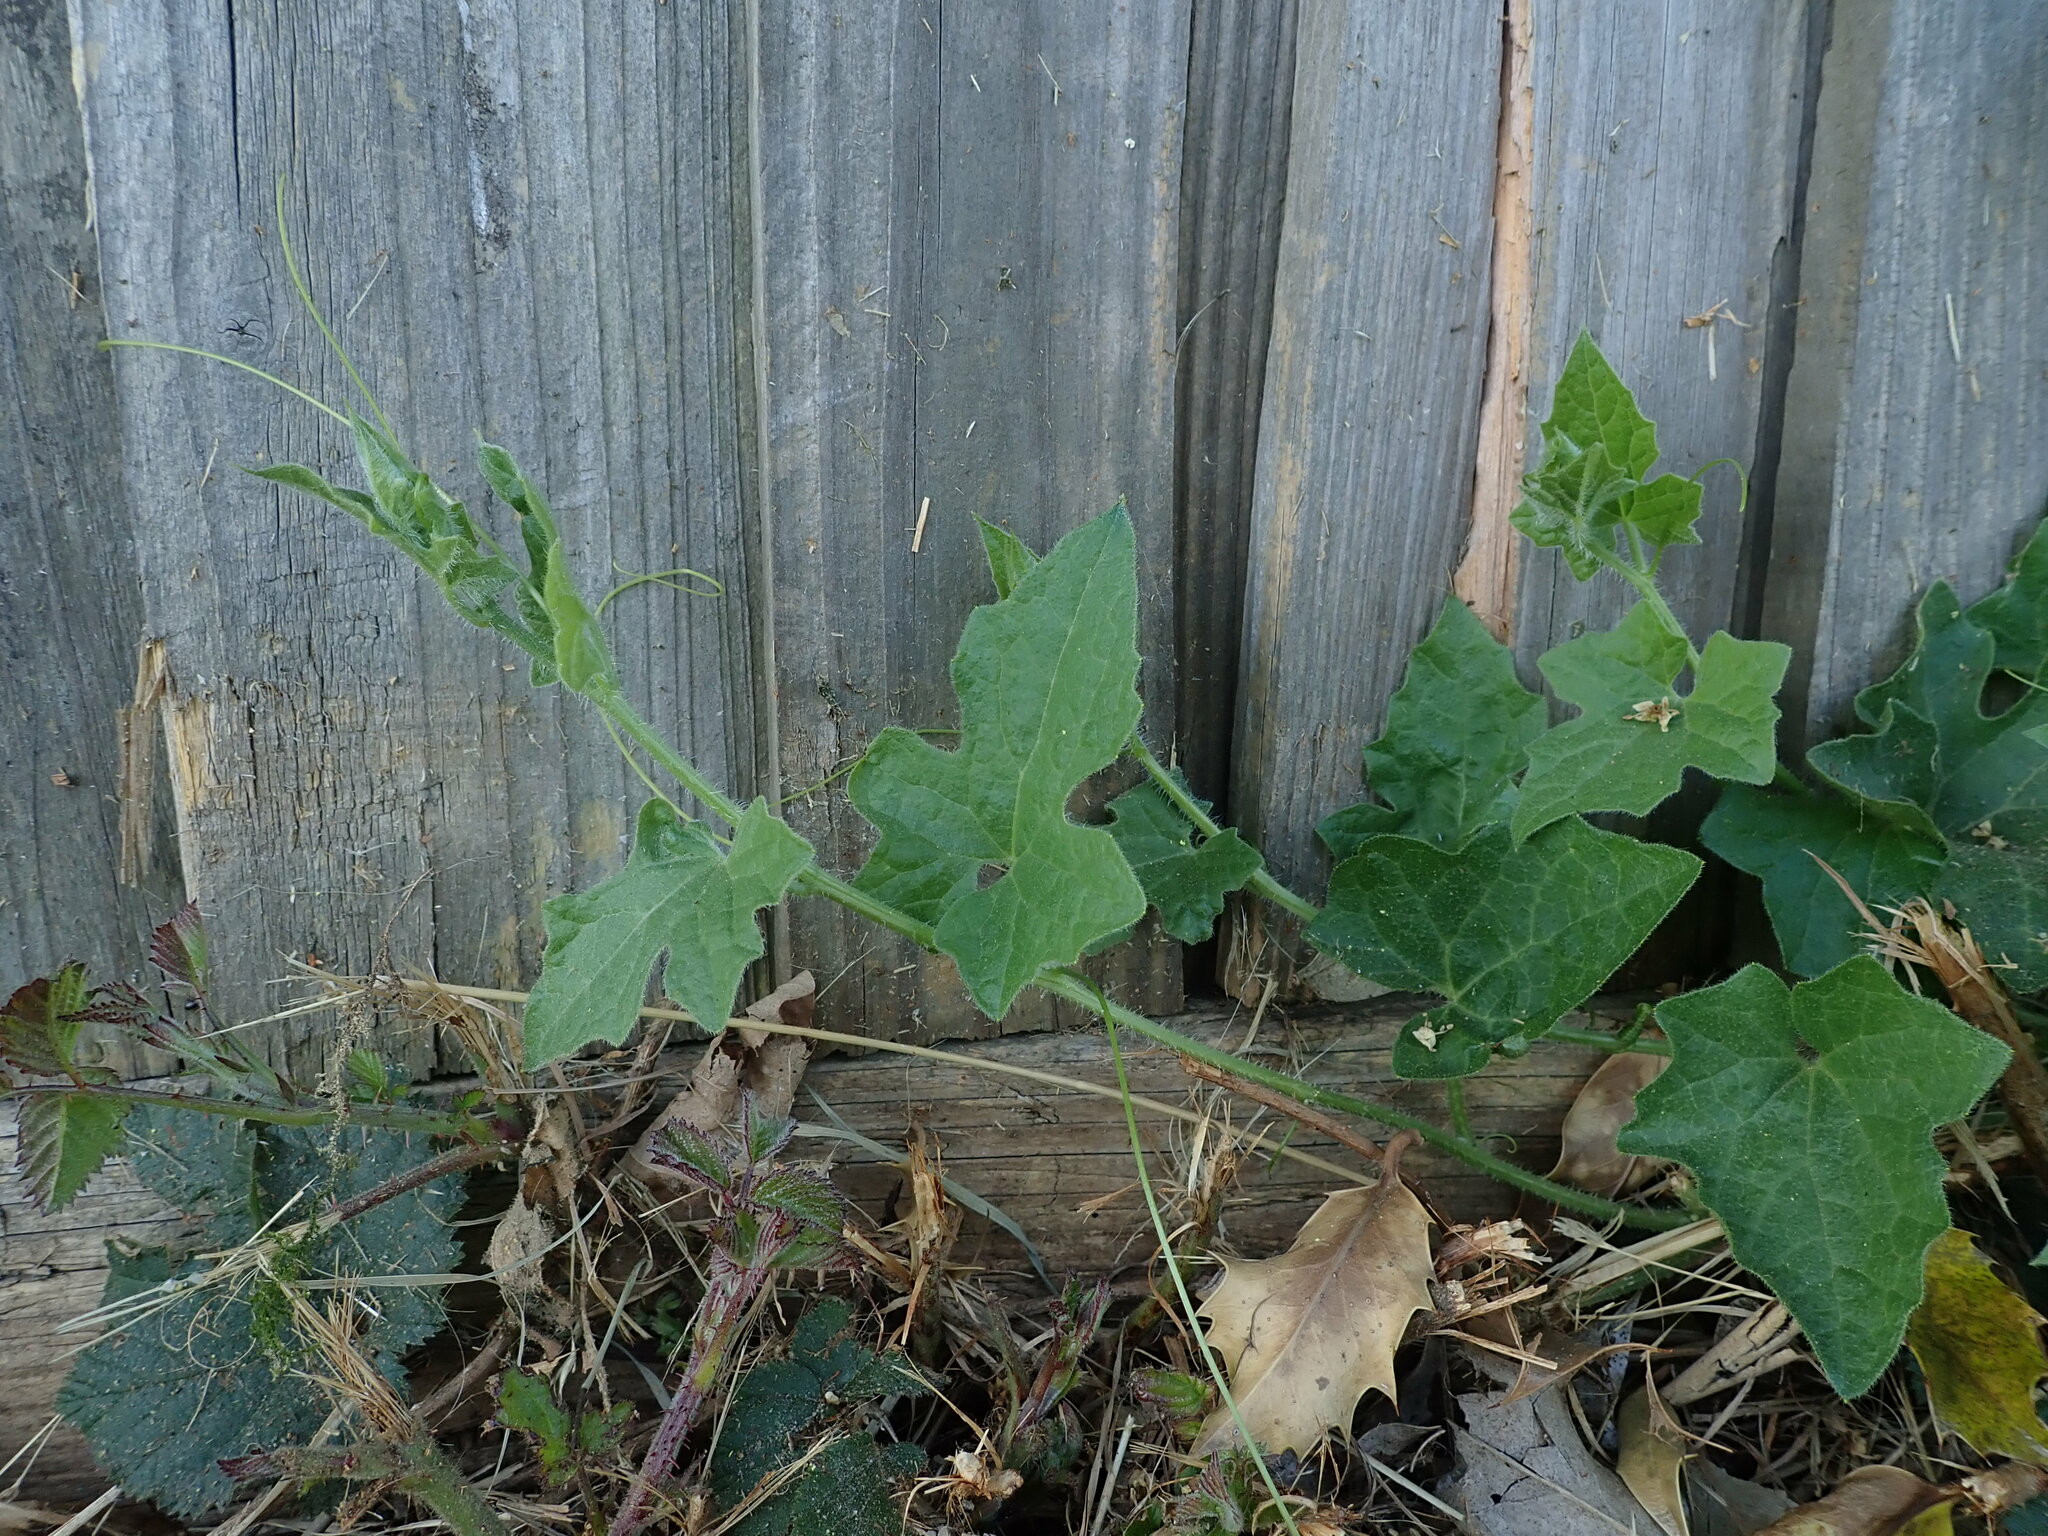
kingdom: Plantae
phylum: Tracheophyta
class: Magnoliopsida
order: Cucurbitales
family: Cucurbitaceae
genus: Bryonia
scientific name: Bryonia dioica
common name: White bryony
